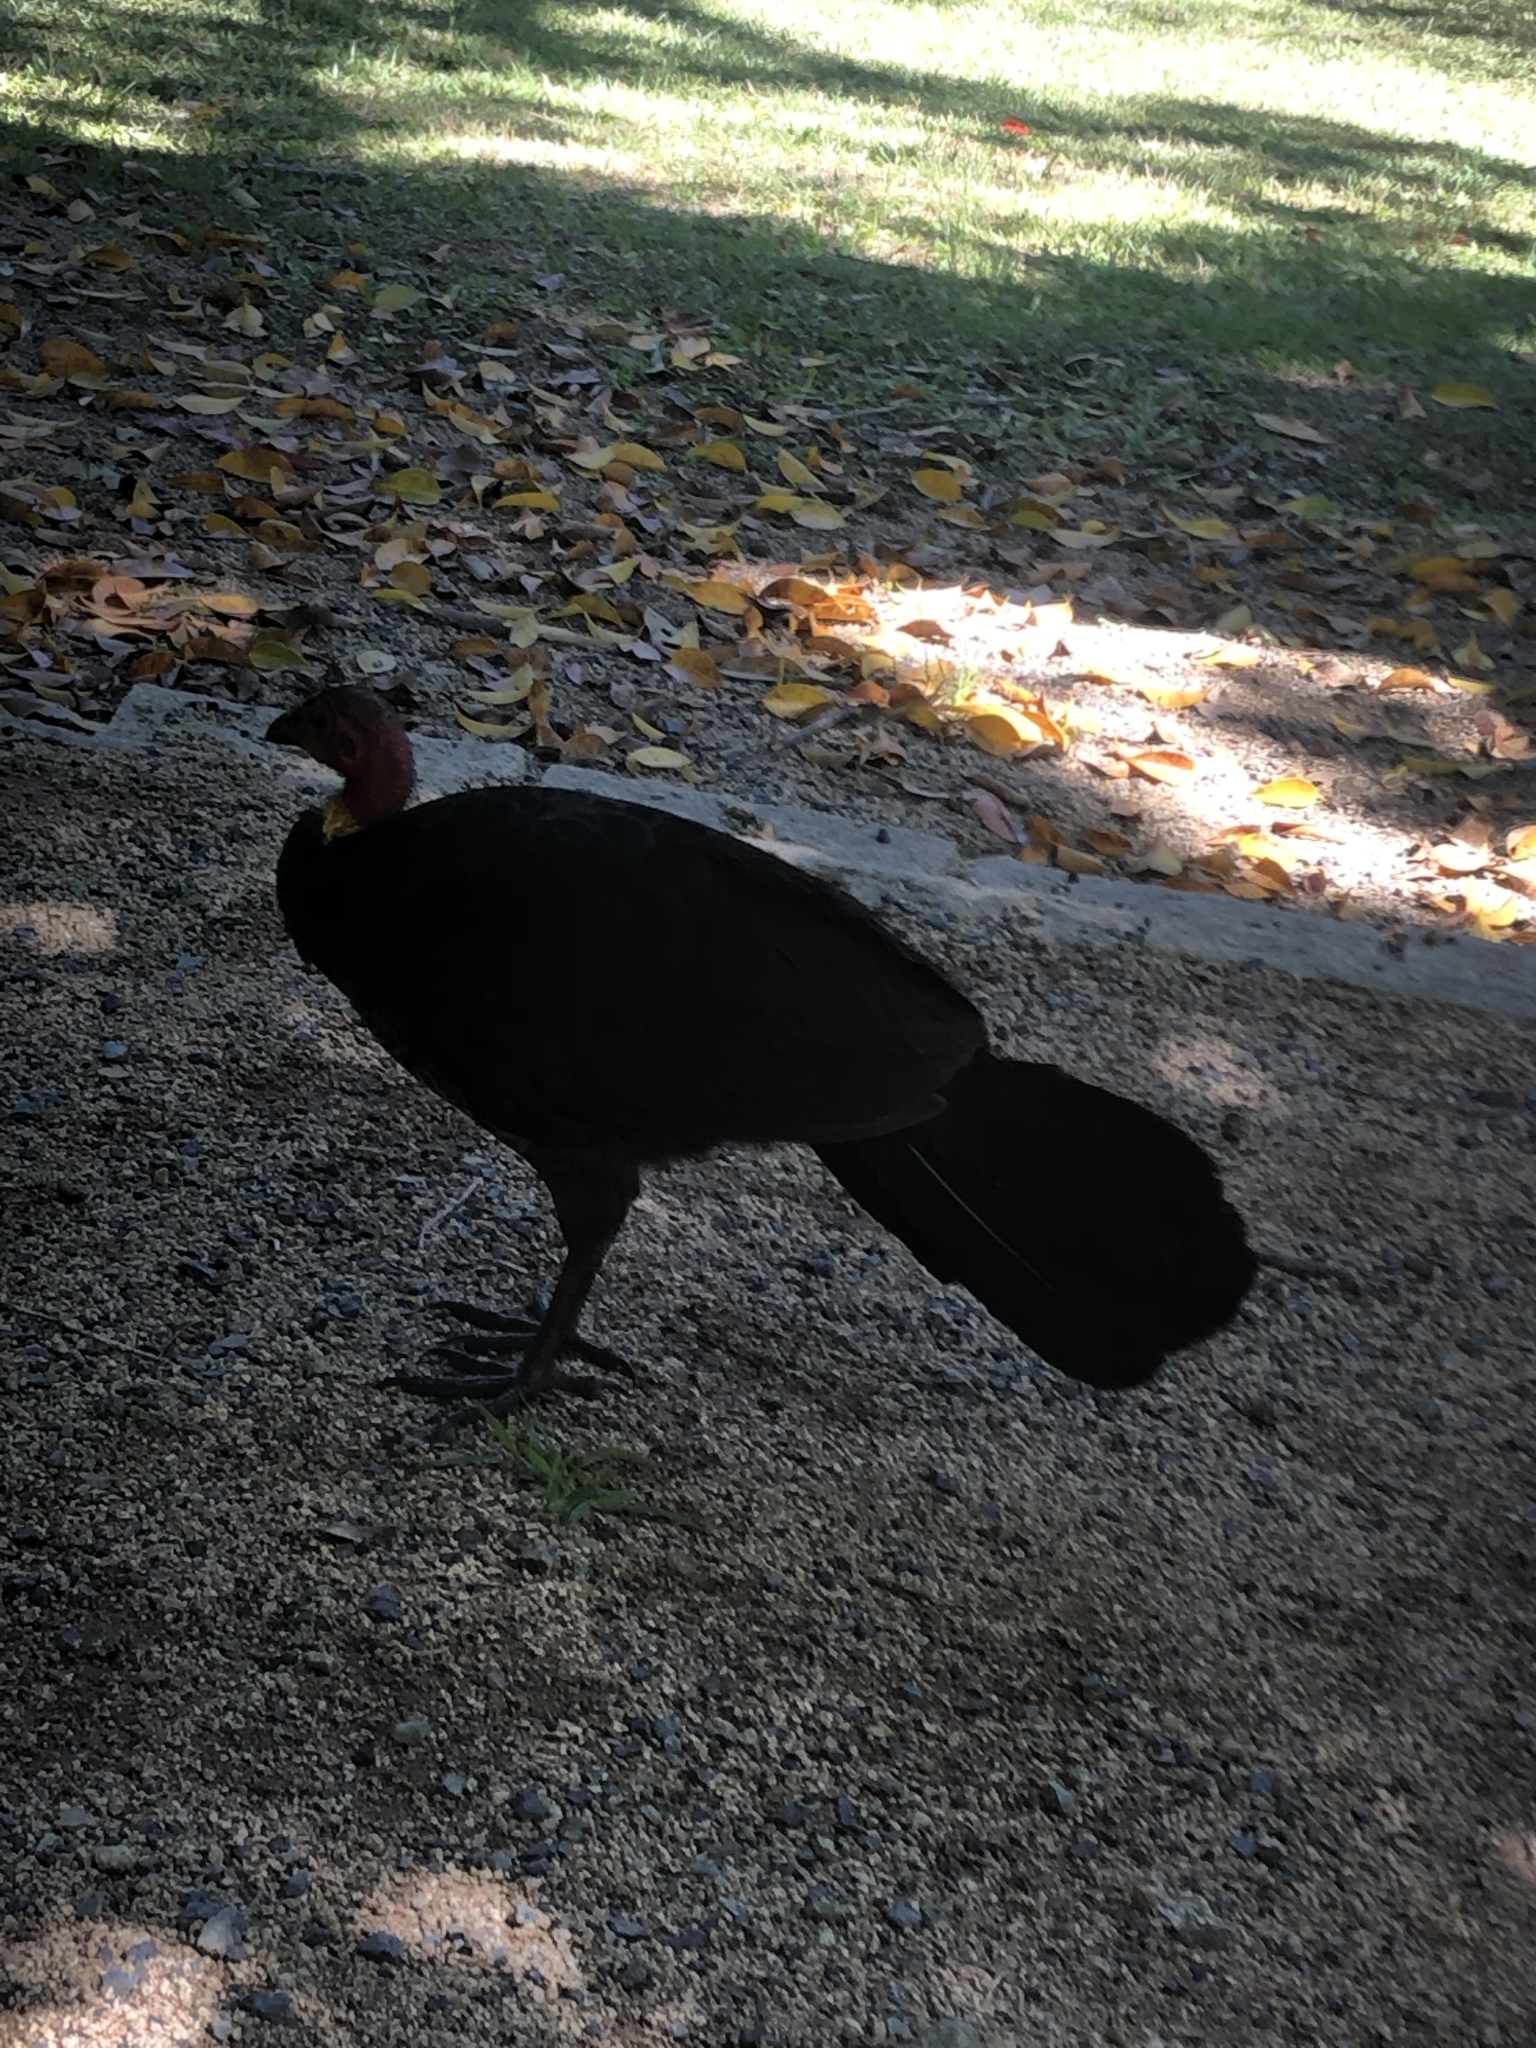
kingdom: Animalia
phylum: Chordata
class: Aves
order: Galliformes
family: Megapodiidae
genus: Alectura
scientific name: Alectura lathami
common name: Australian brushturkey
